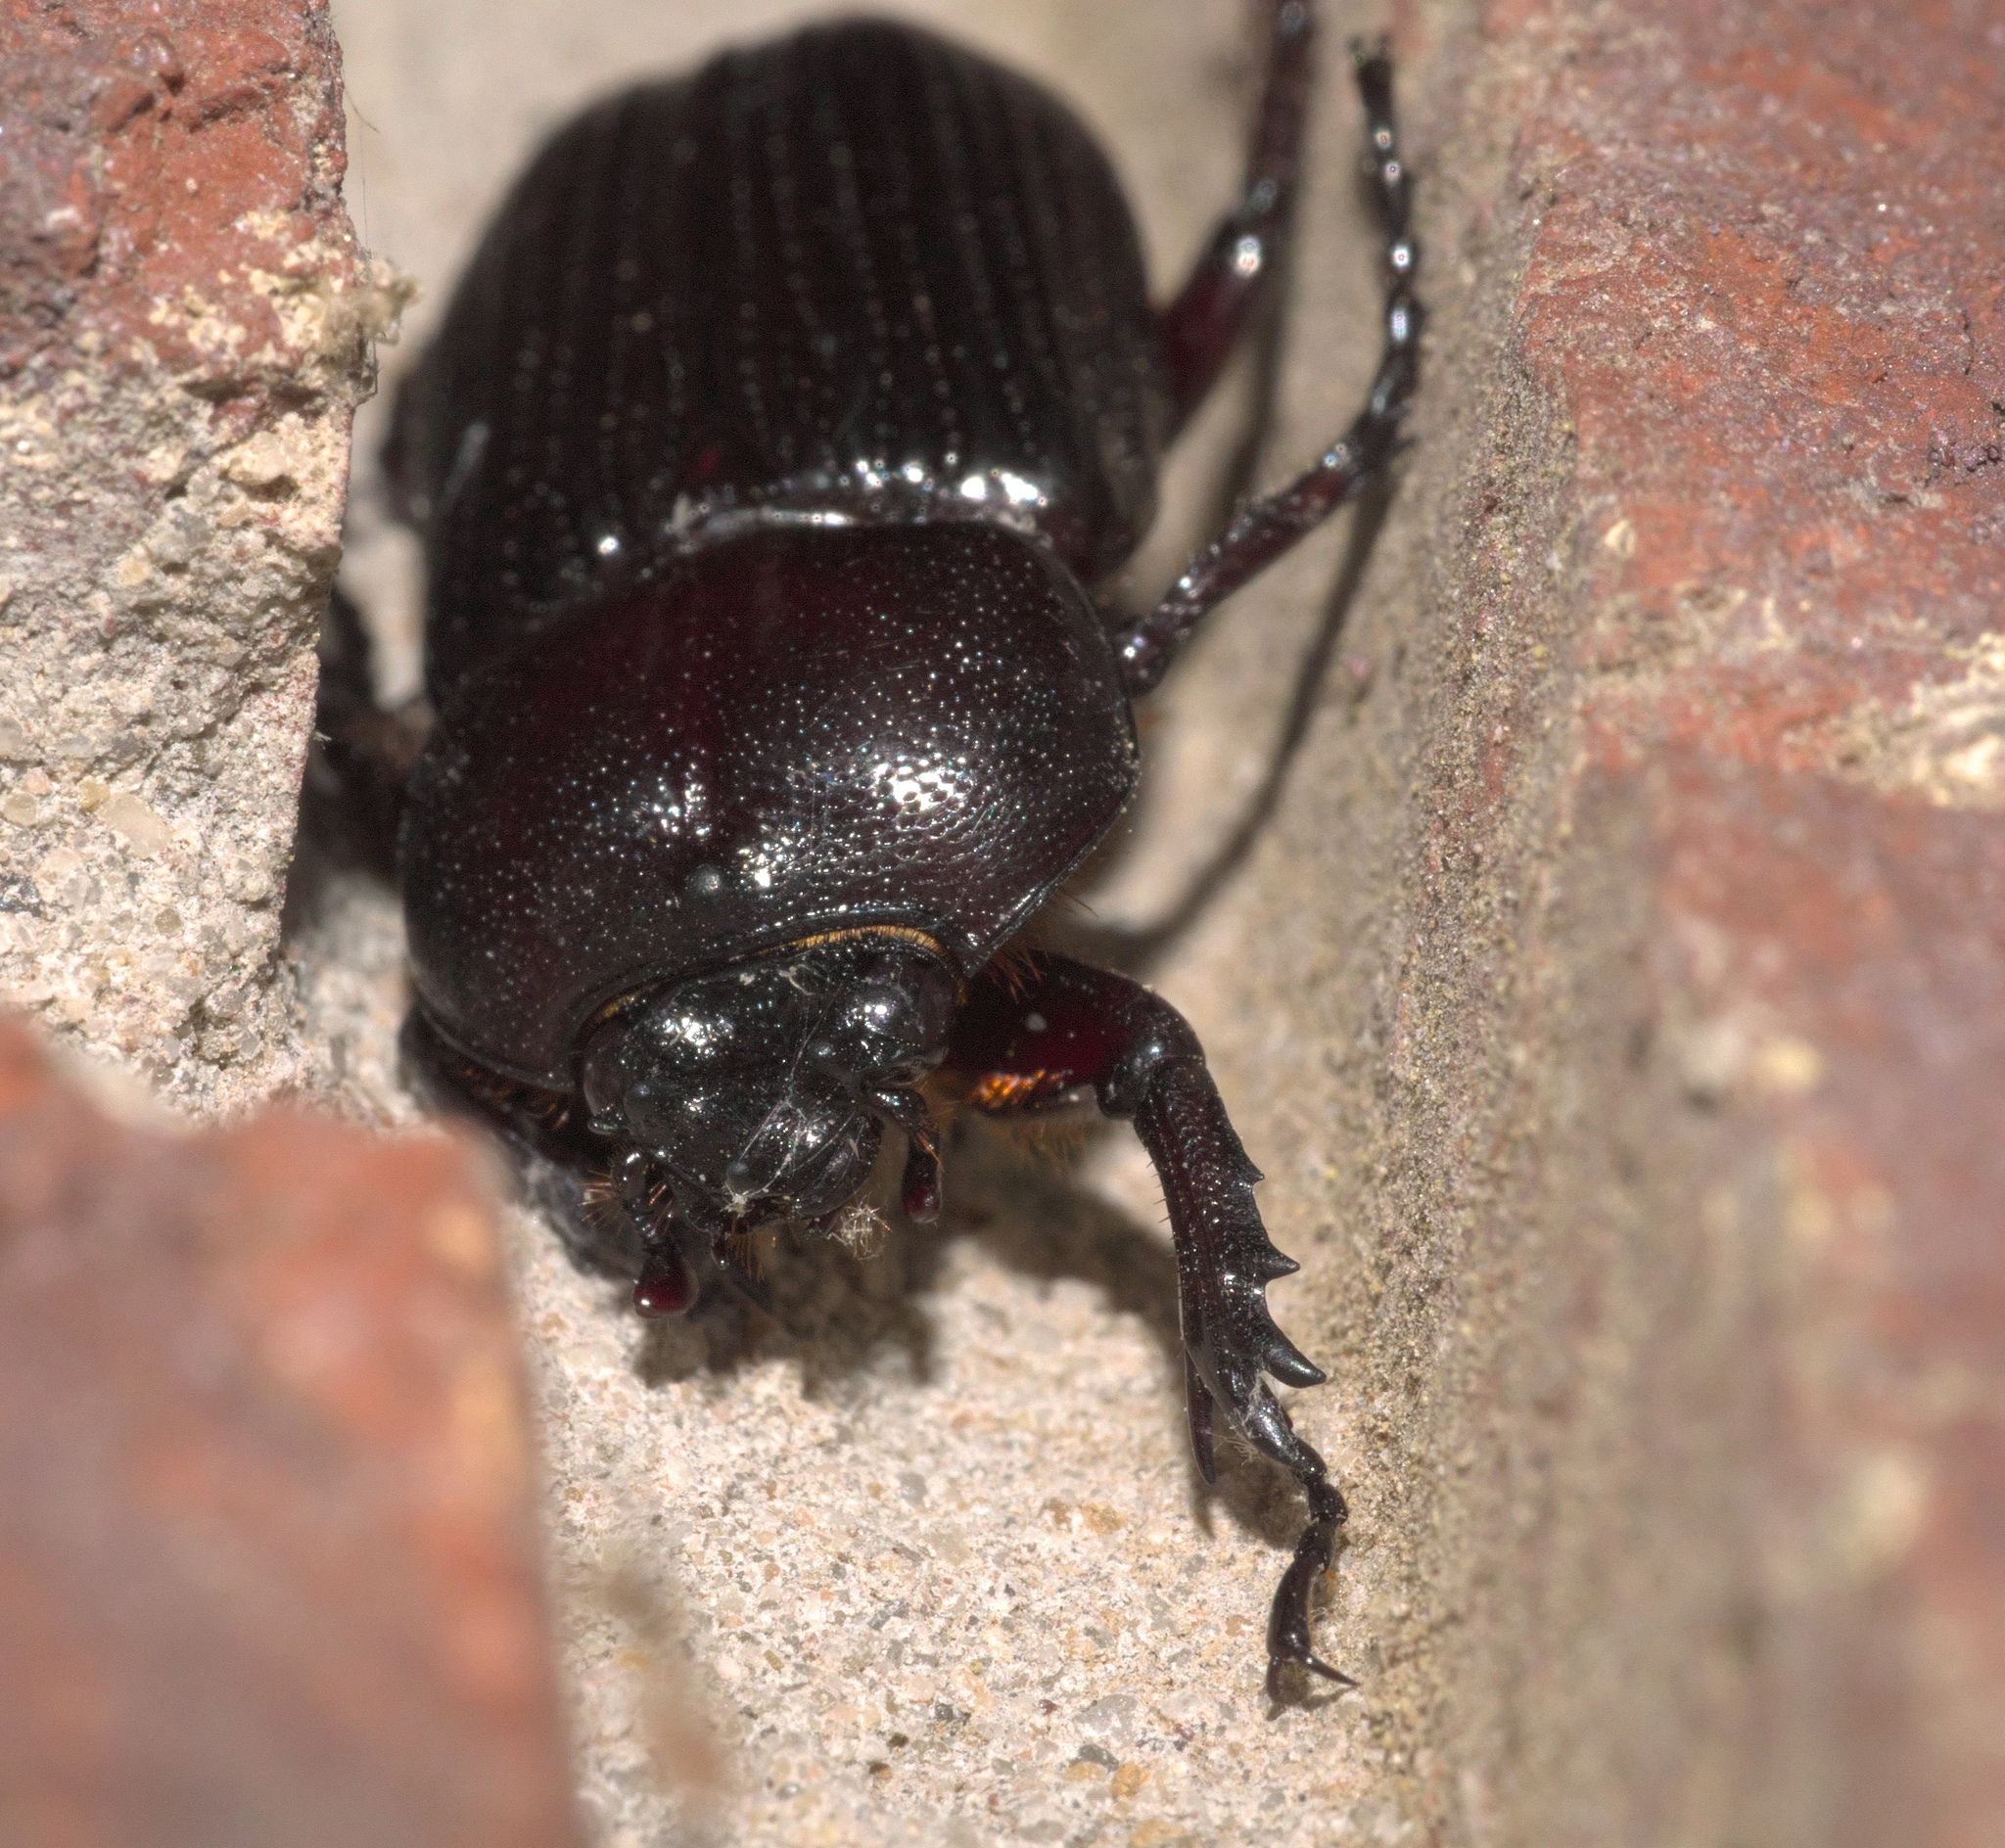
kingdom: Animalia
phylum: Arthropoda
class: Insecta
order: Coleoptera
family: Scarabaeidae
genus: Phileurus
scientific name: Phileurus valgus
